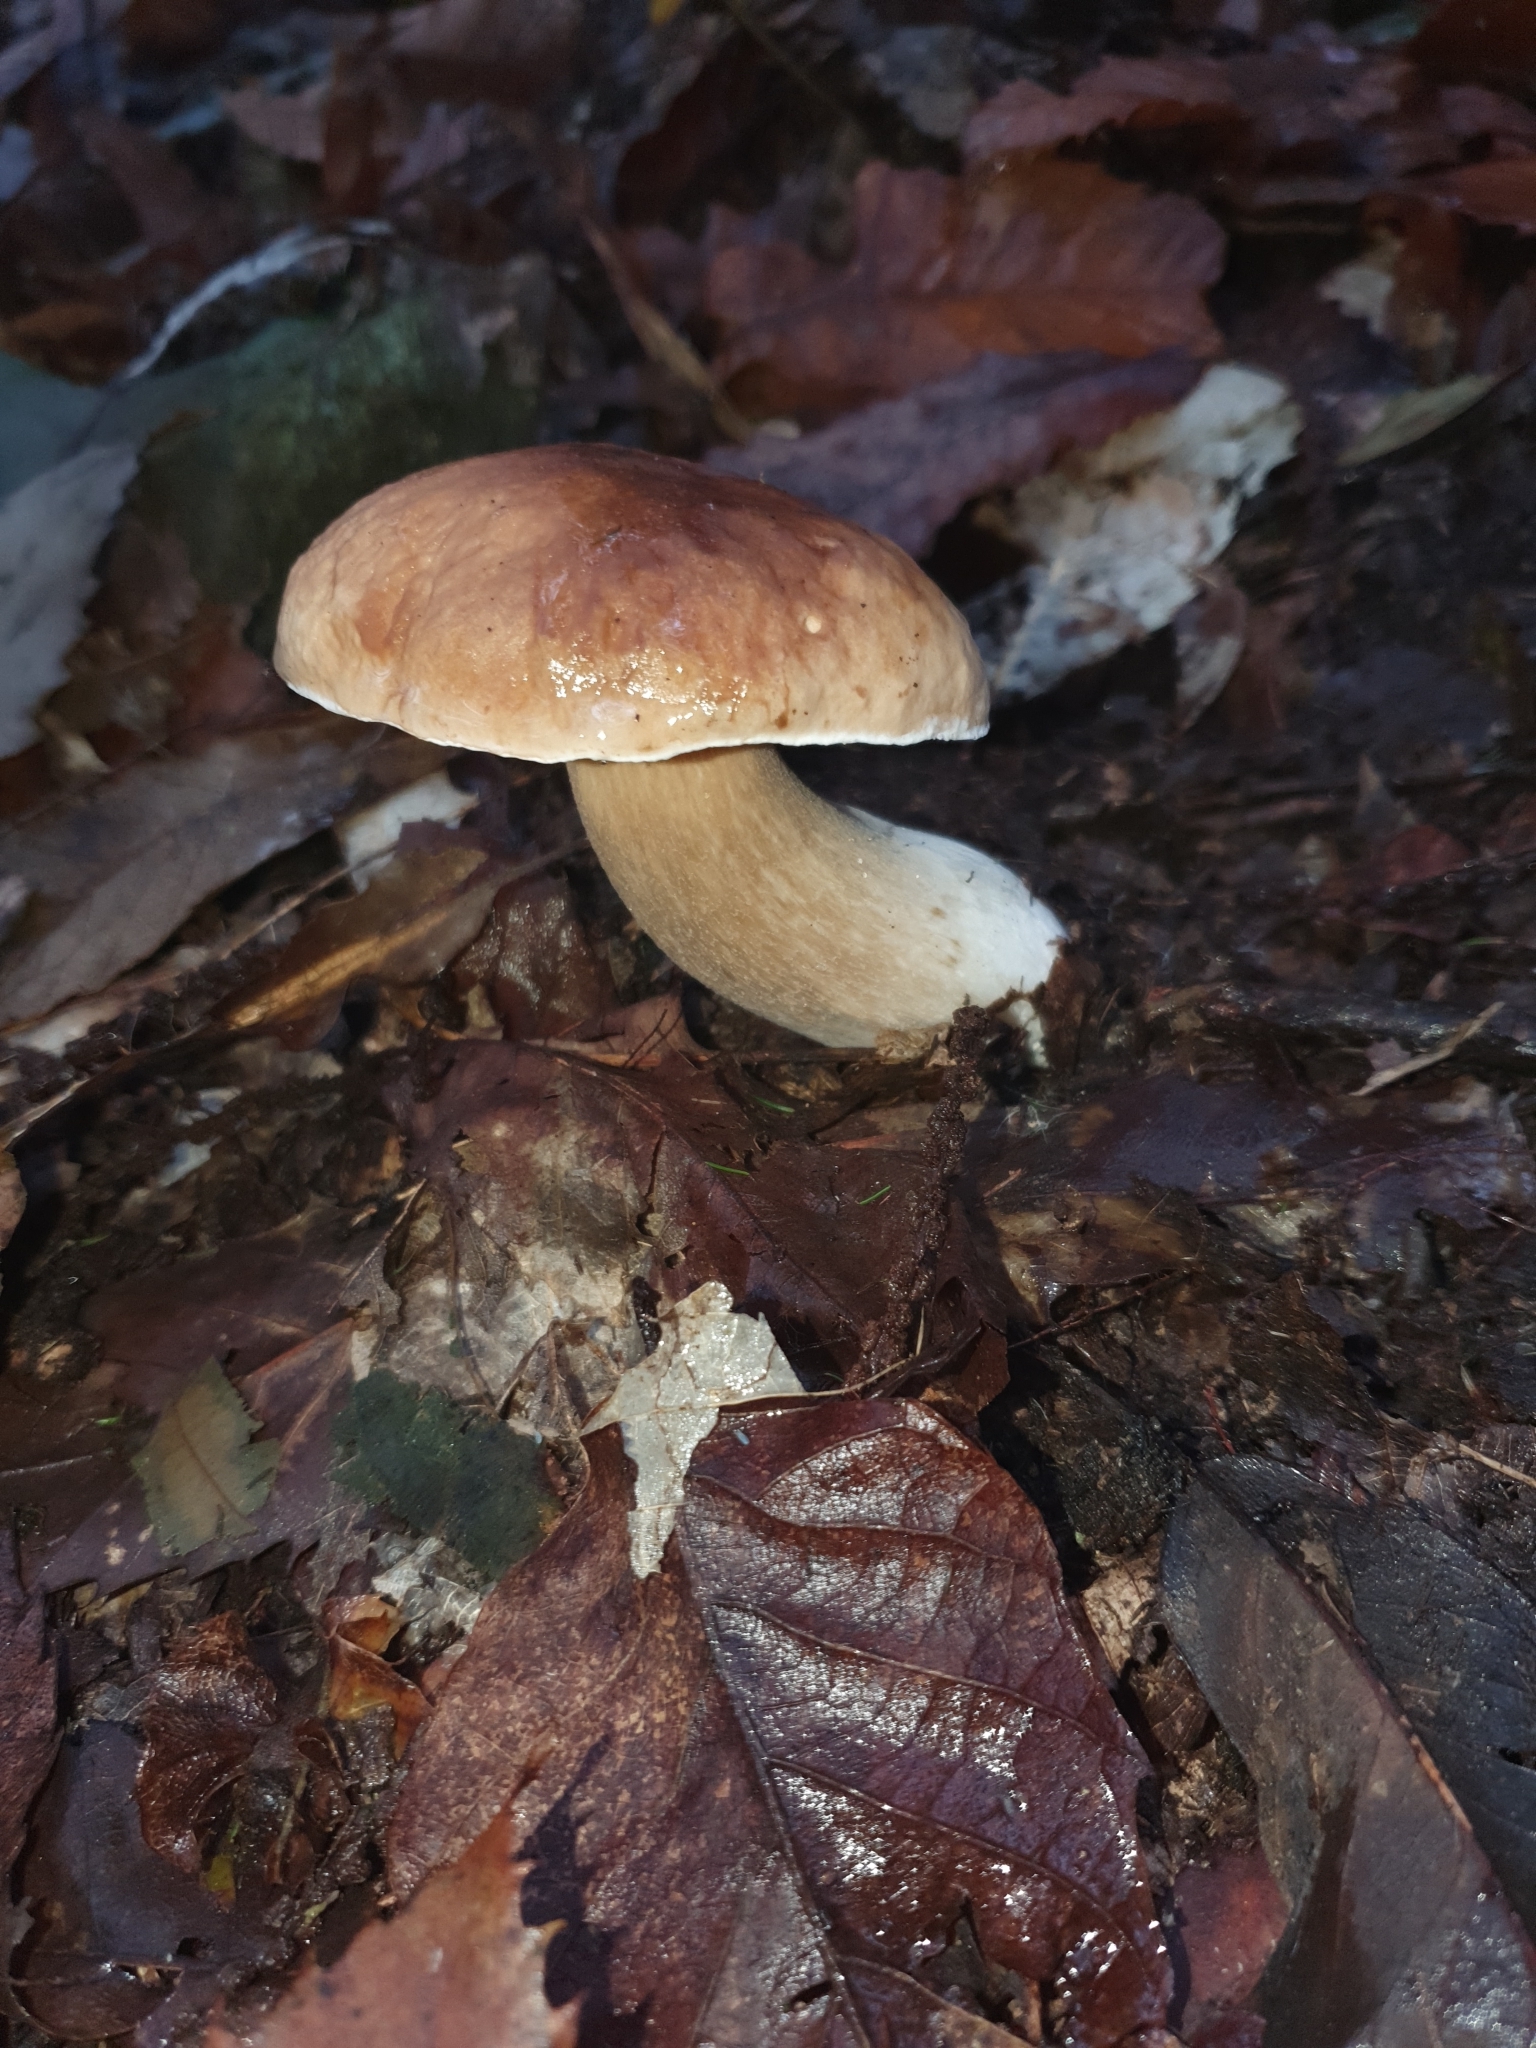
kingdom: Fungi
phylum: Basidiomycota
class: Agaricomycetes
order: Boletales
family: Boletaceae
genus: Boletus
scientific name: Boletus edulis
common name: Cep
